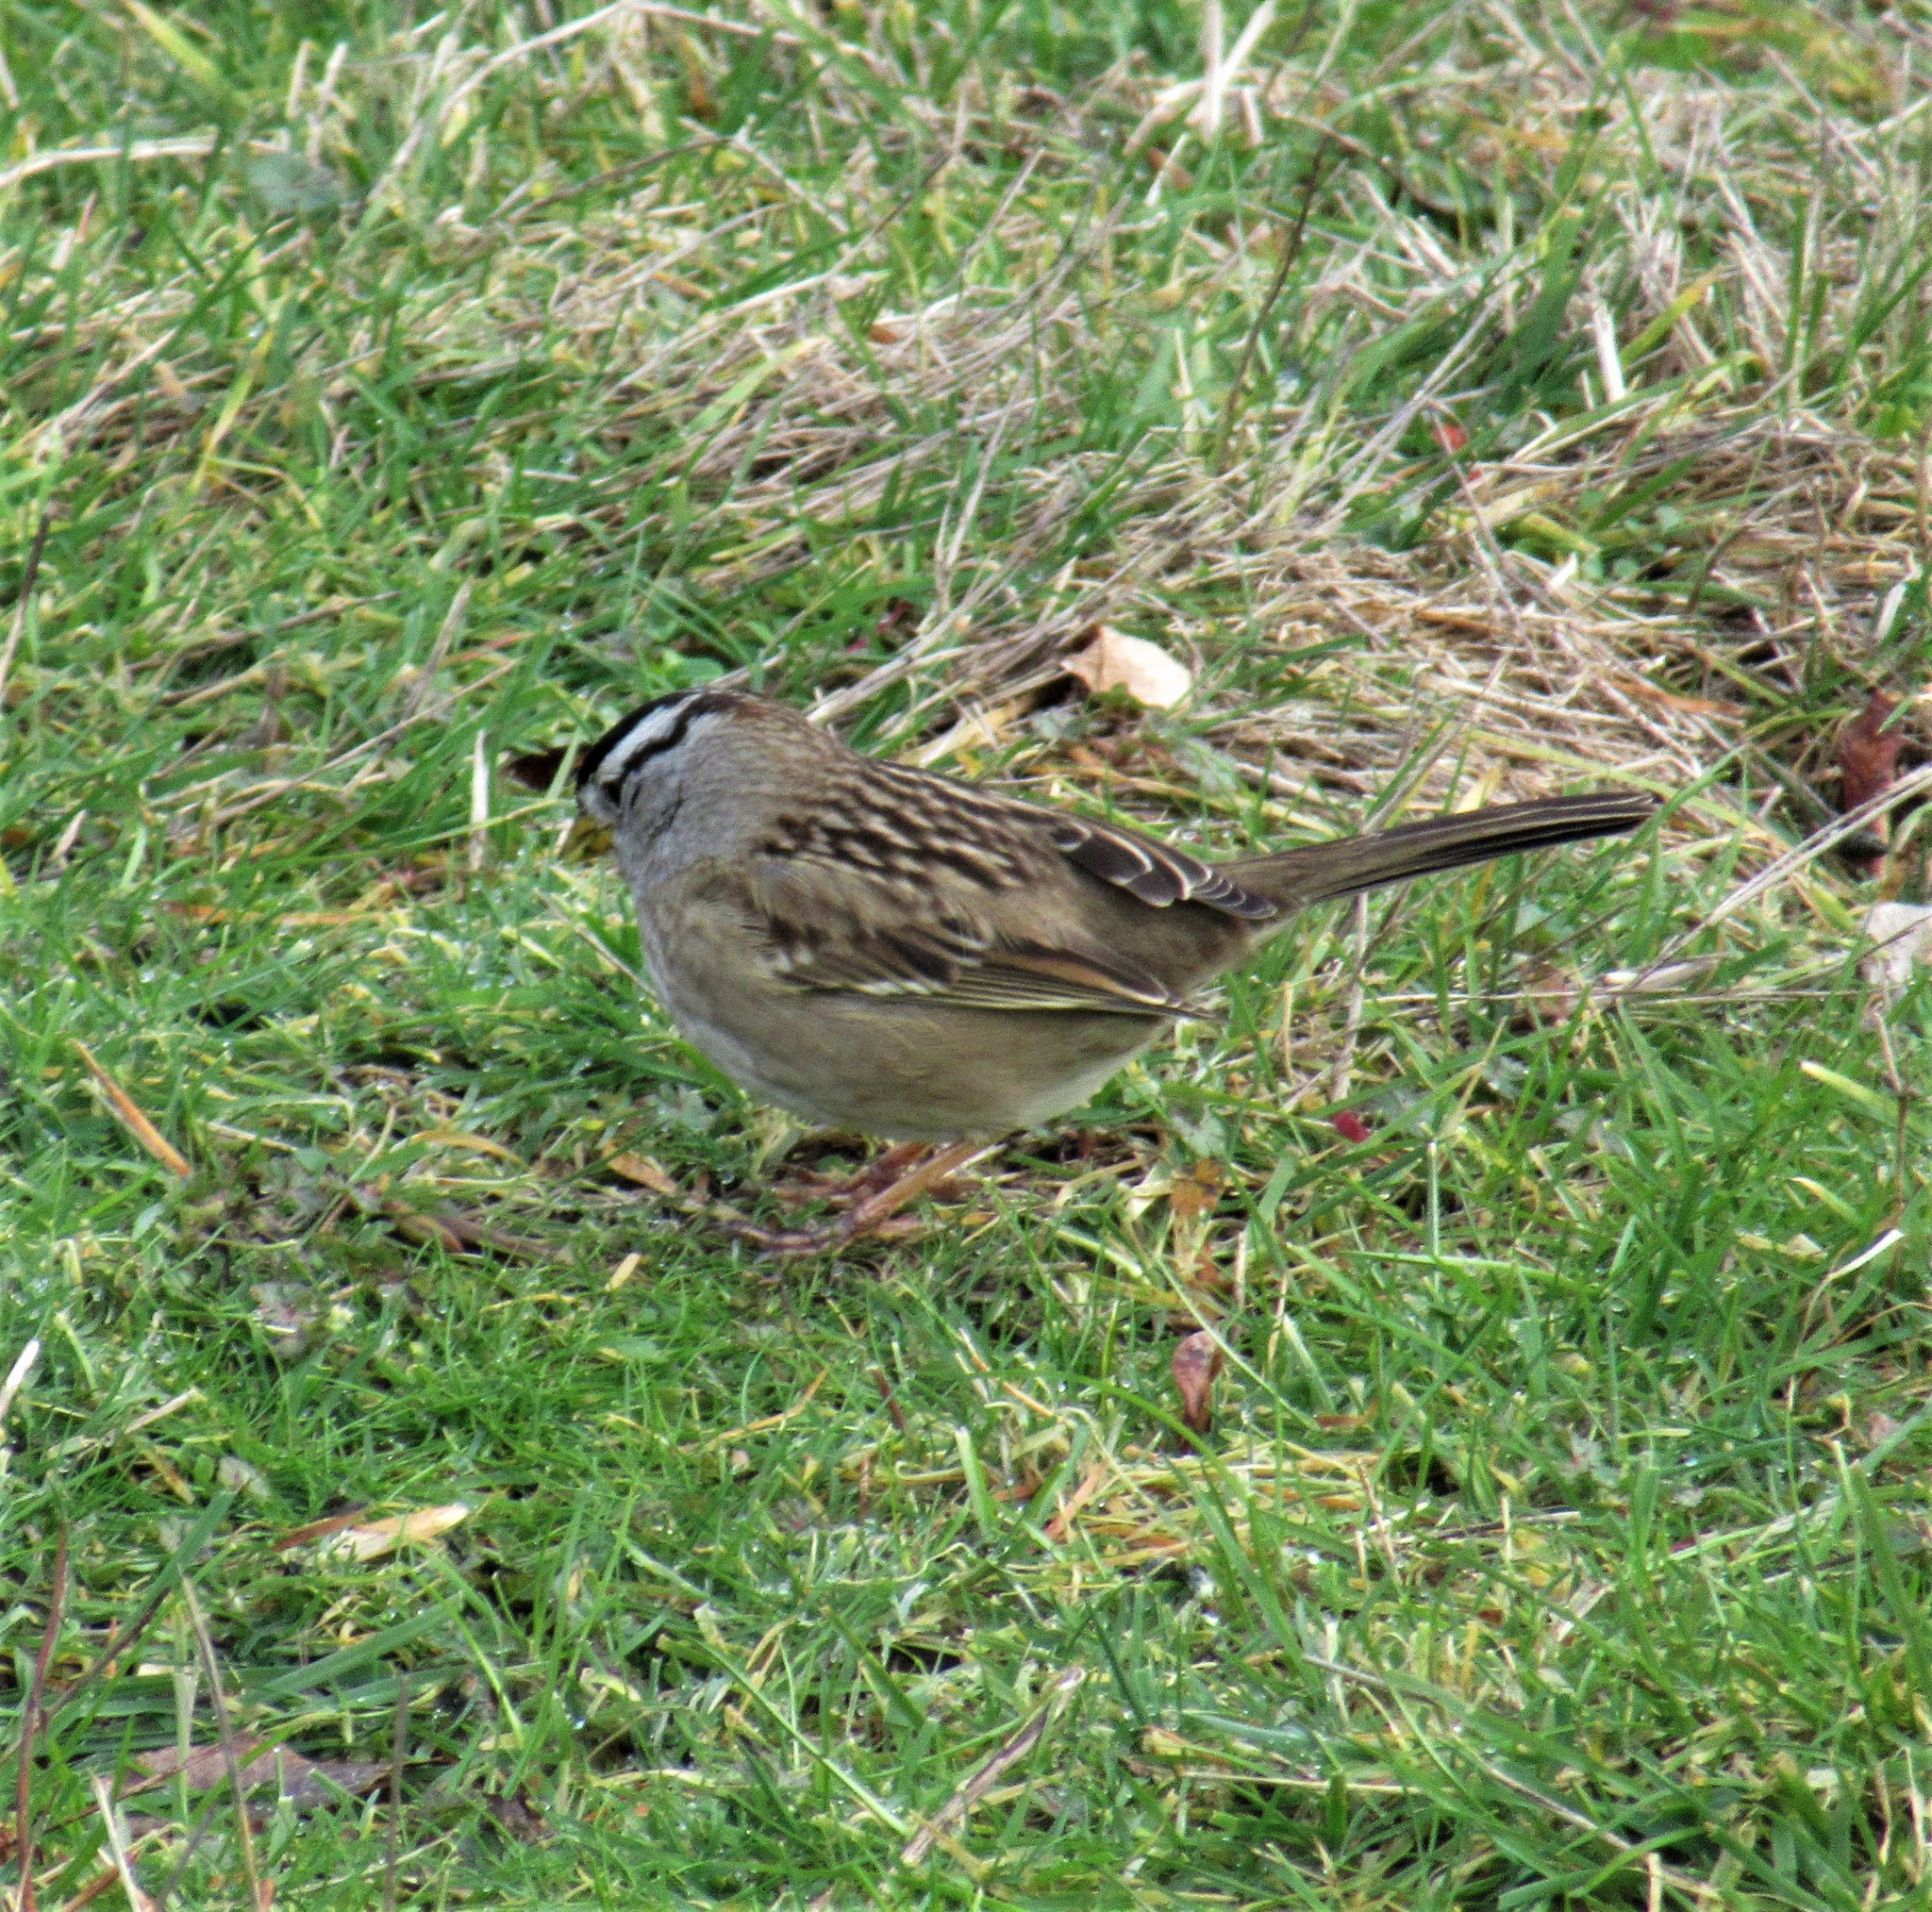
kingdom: Animalia
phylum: Chordata
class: Aves
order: Passeriformes
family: Passerellidae
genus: Zonotrichia
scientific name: Zonotrichia leucophrys
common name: White-crowned sparrow
